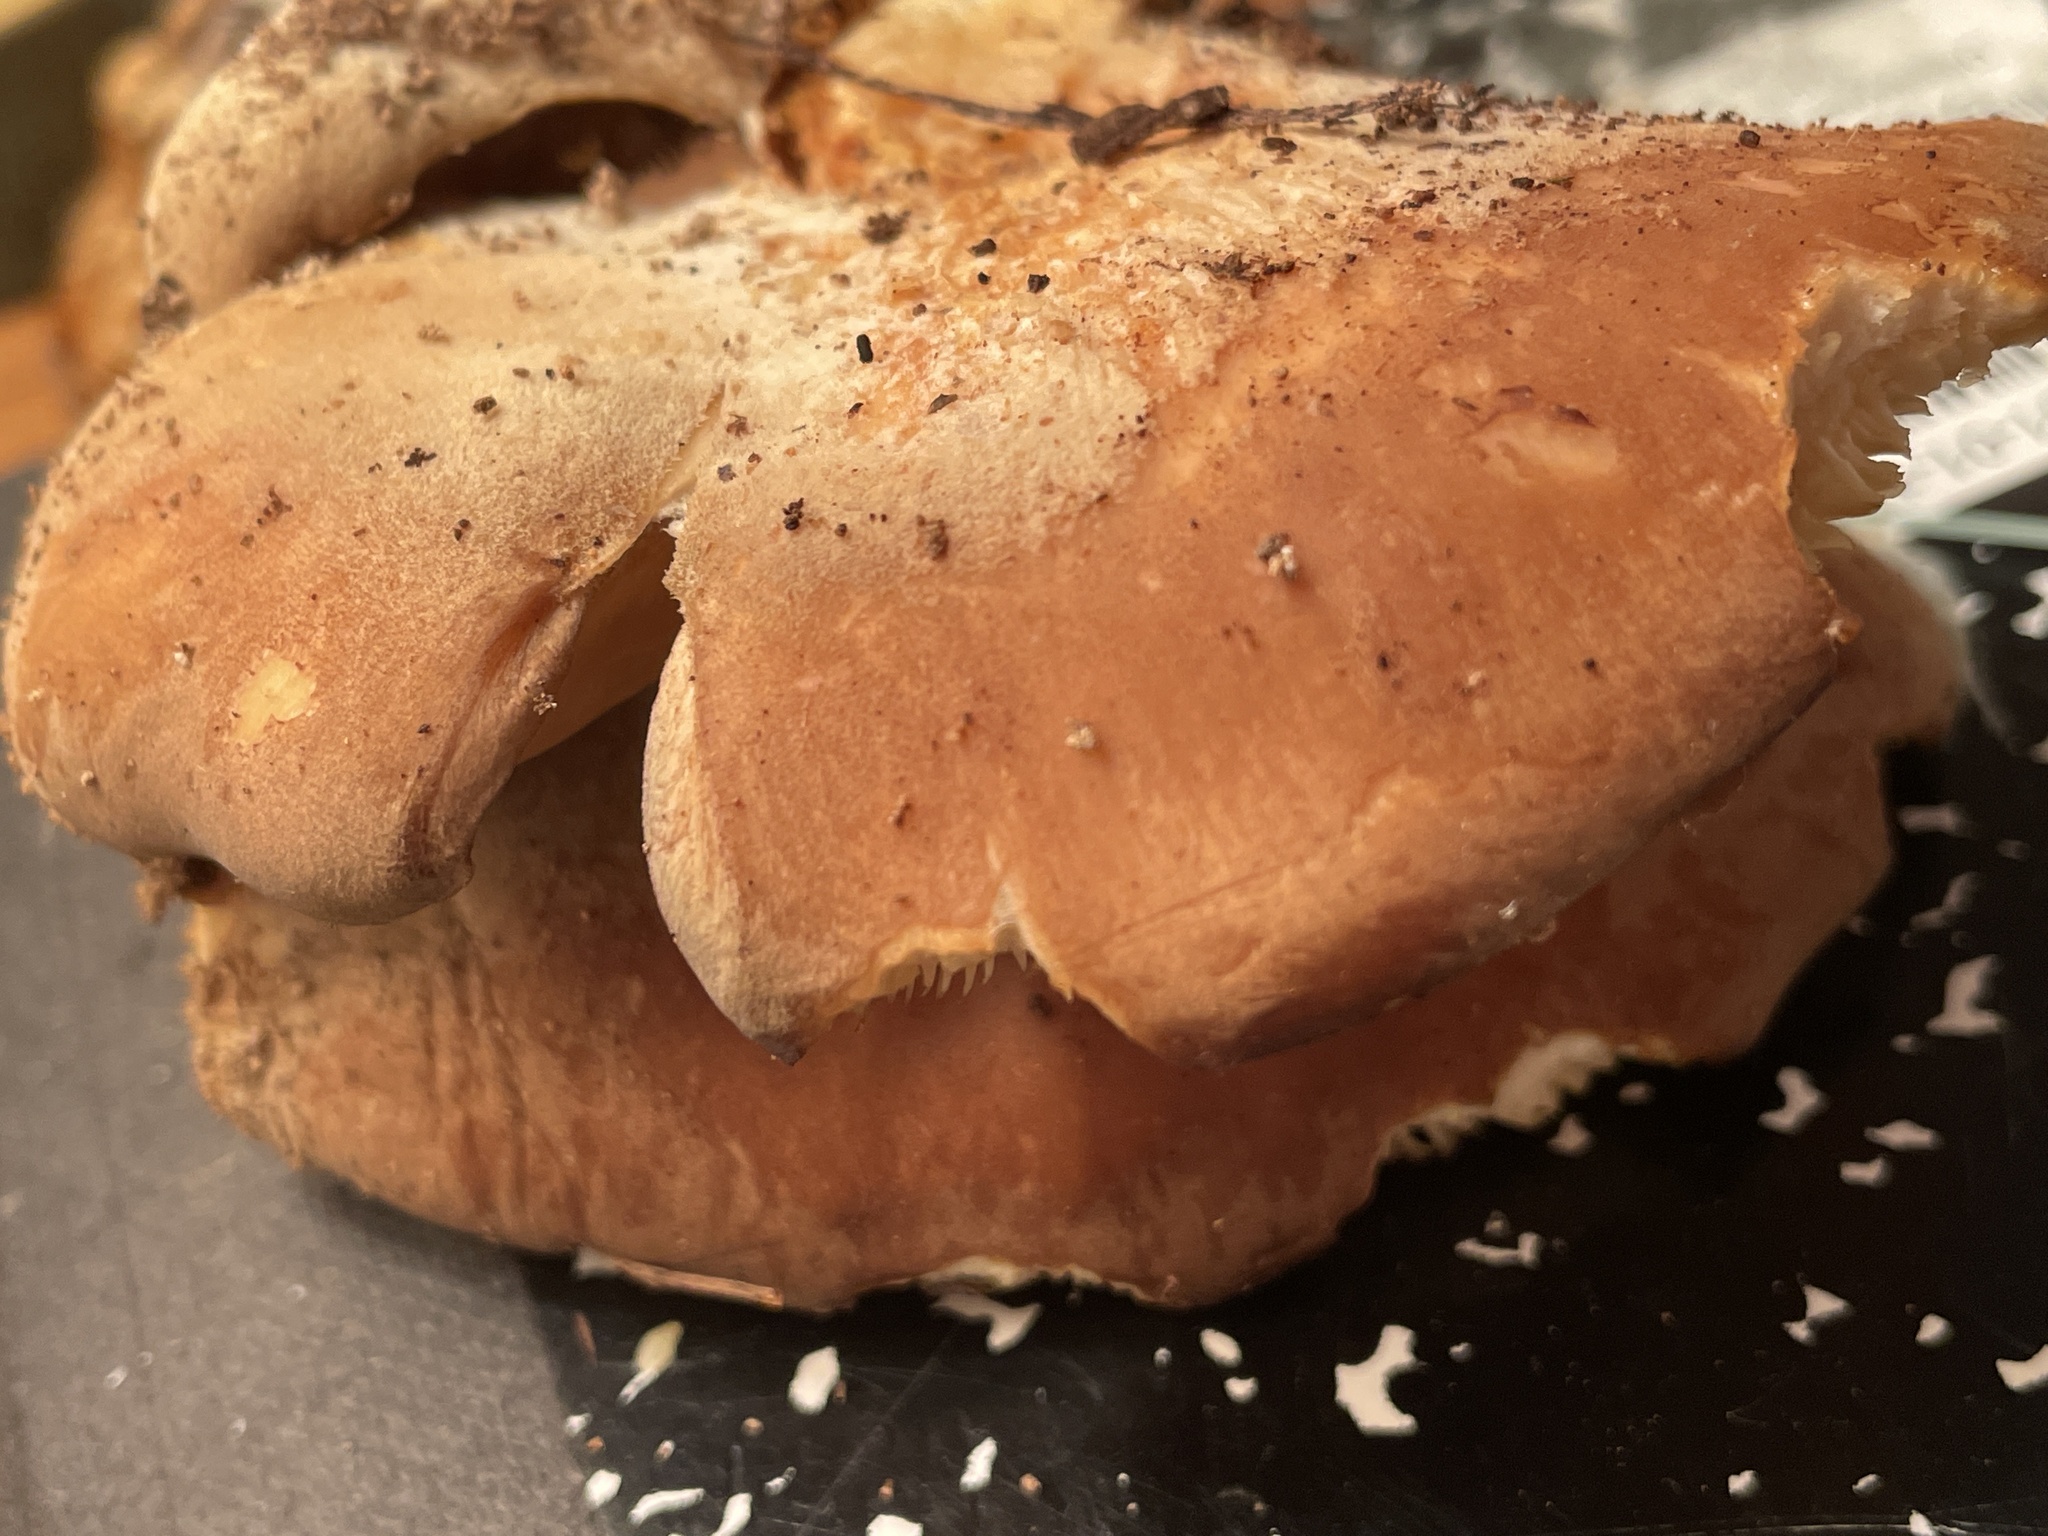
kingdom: Fungi
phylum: Basidiomycota
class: Agaricomycetes
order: Agaricales
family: Sarcomyxaceae
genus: Sarcomyxa
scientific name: Sarcomyxa serotina
